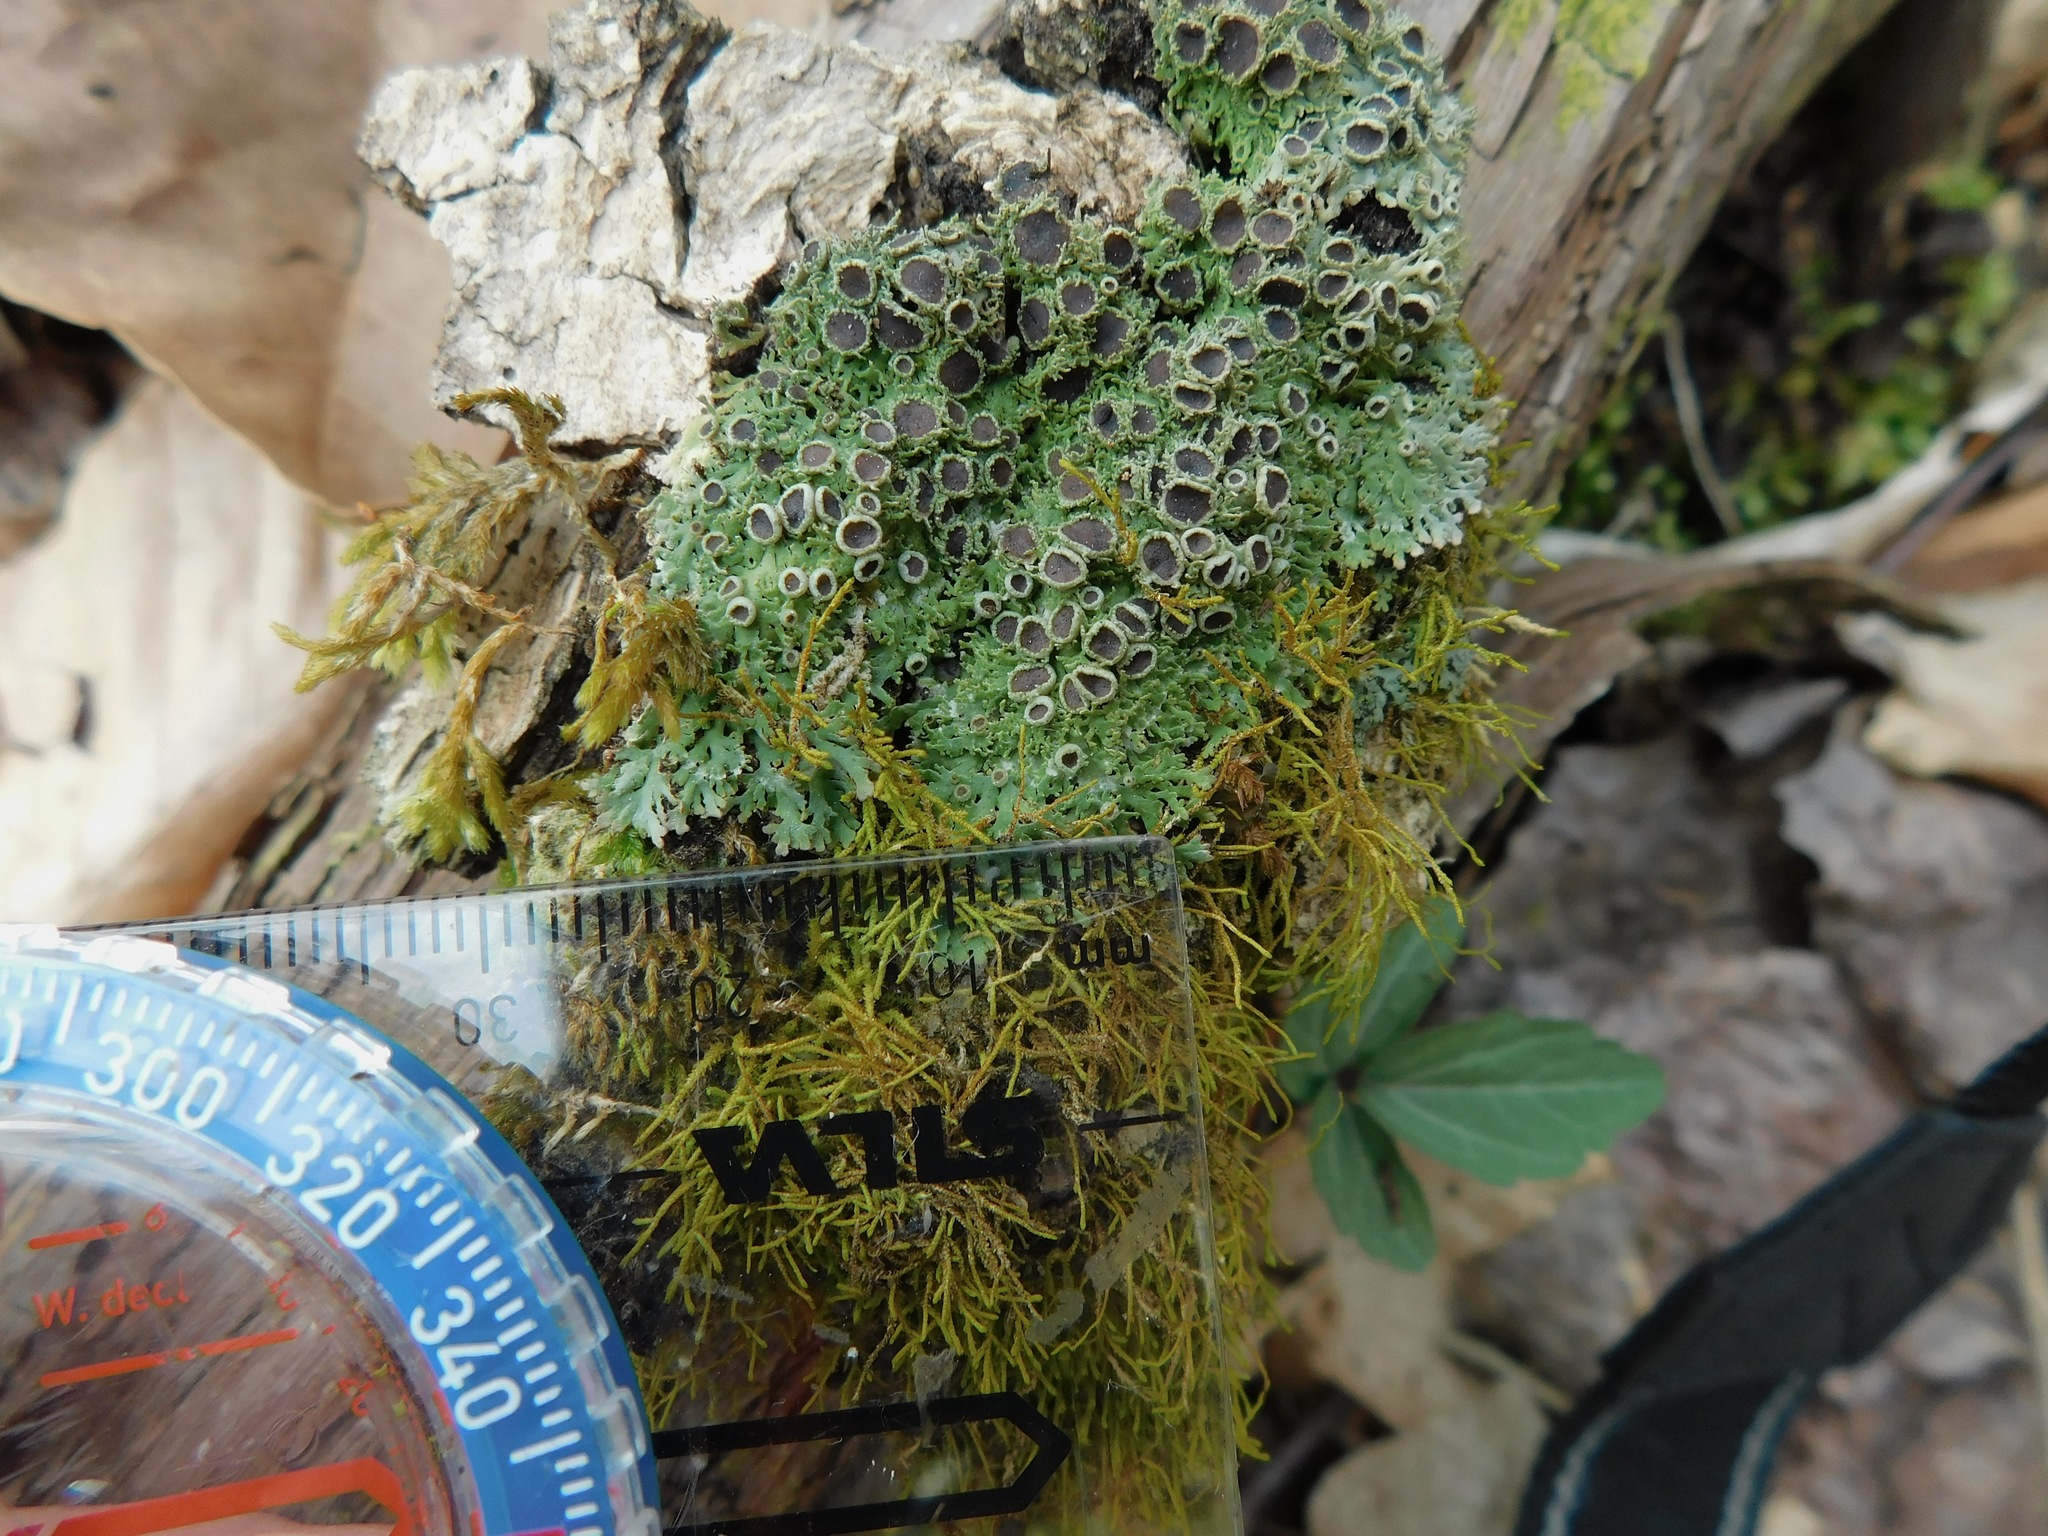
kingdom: Fungi
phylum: Ascomycota
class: Lecanoromycetes
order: Caliciales
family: Physciaceae
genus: Kurokawia
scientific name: Kurokawia palmulata
